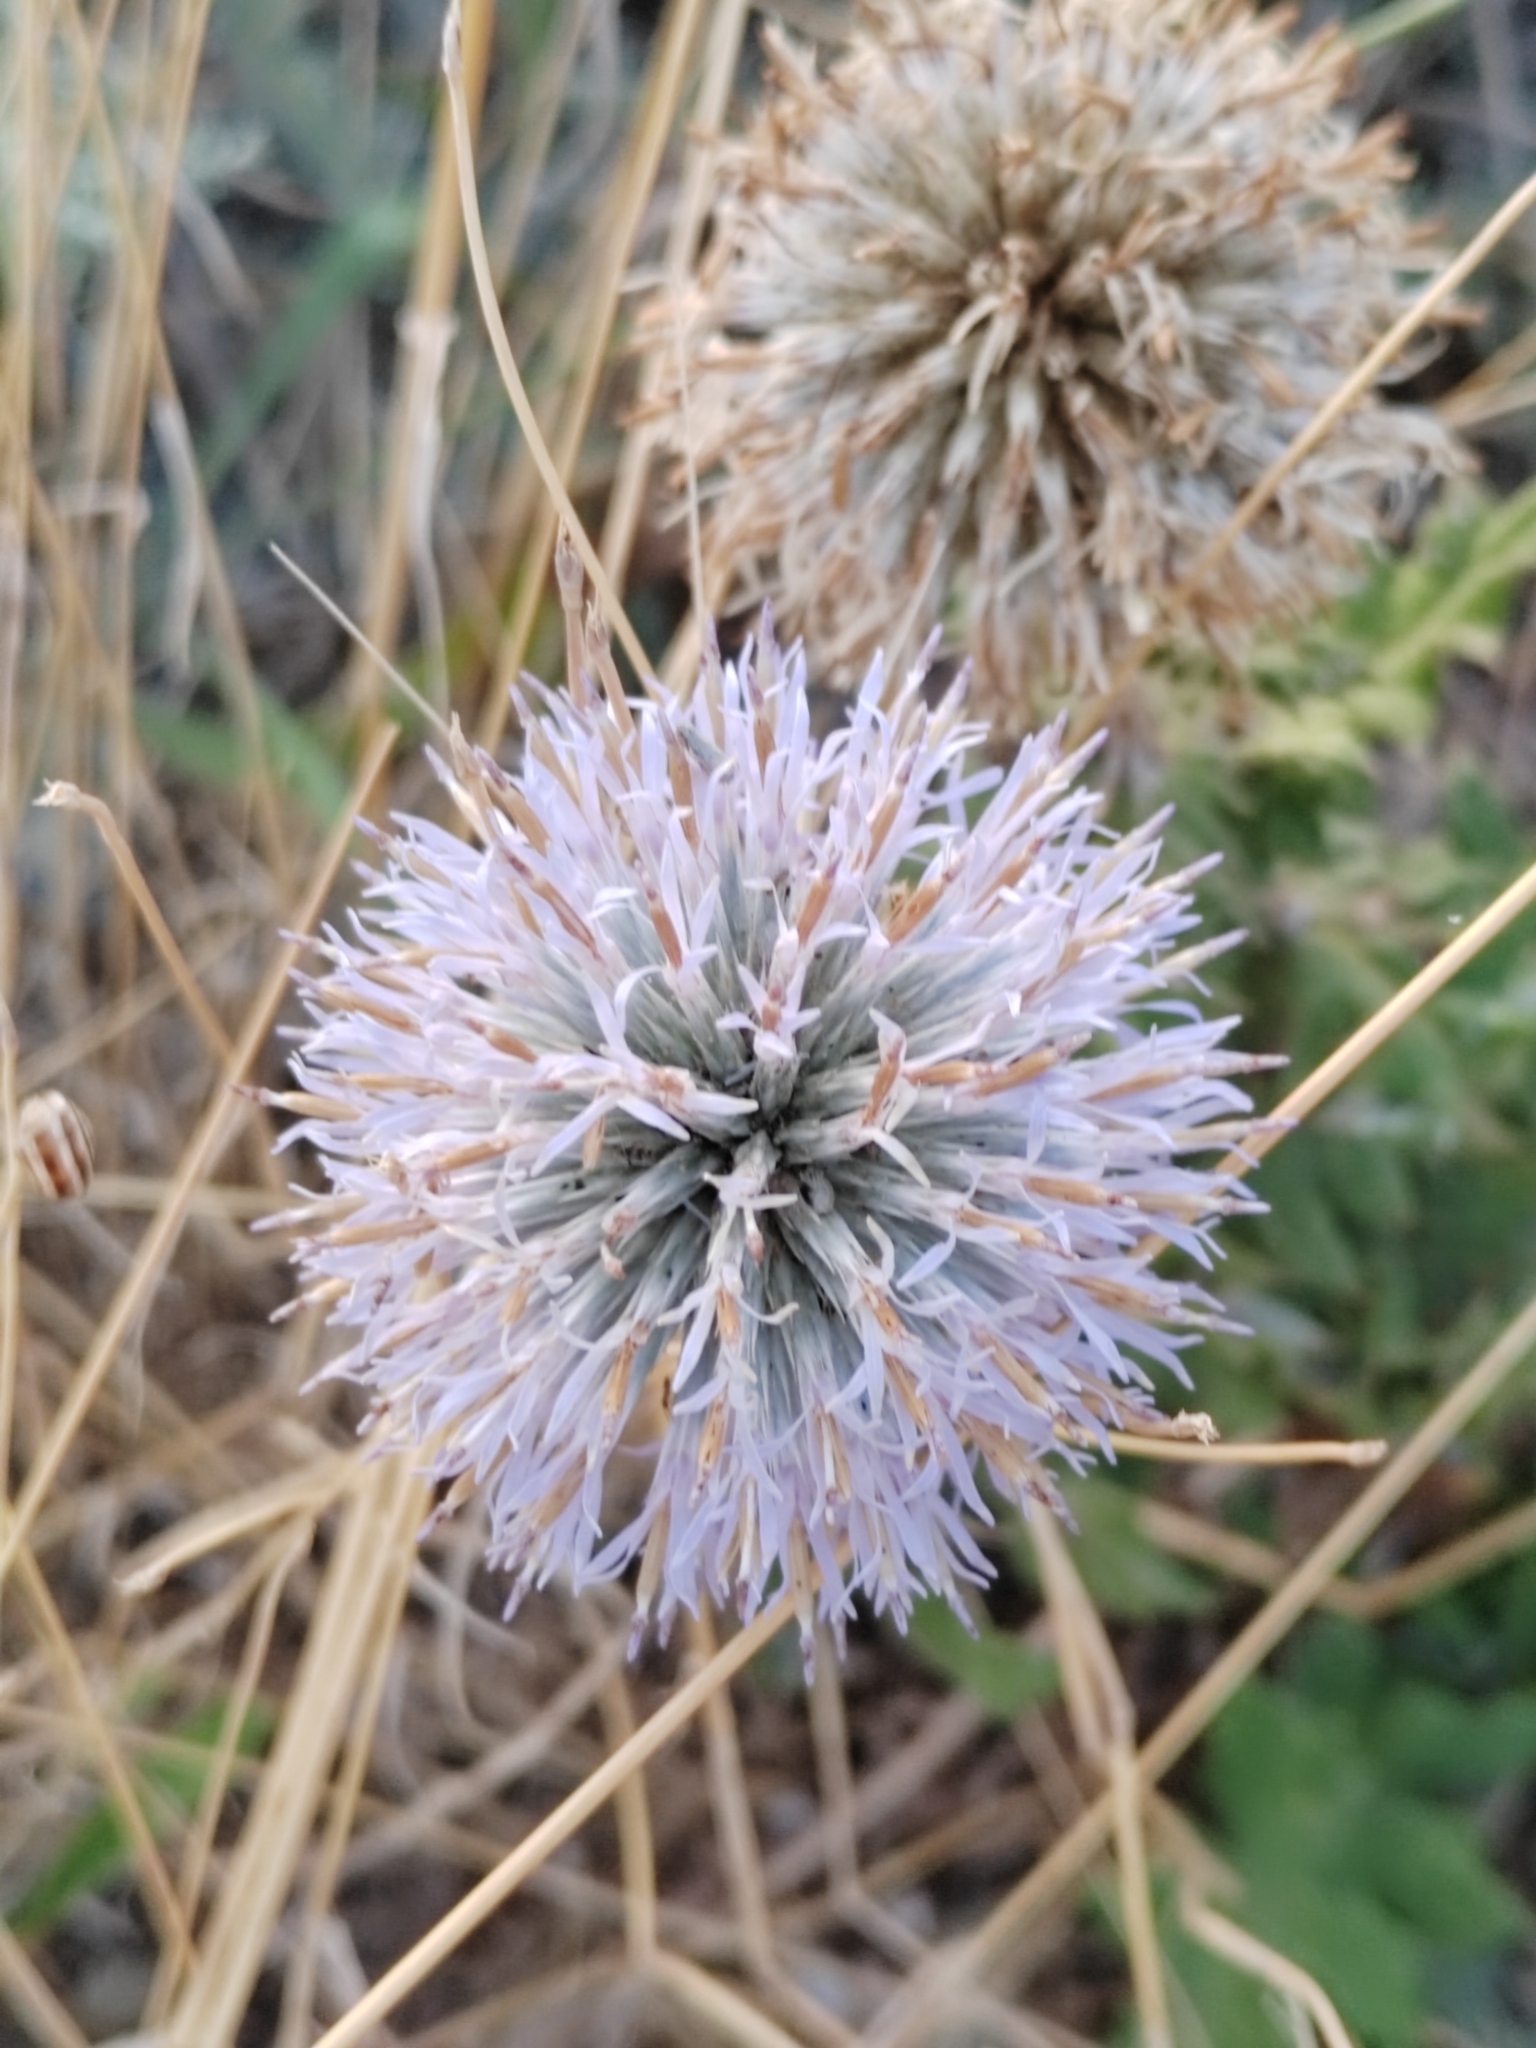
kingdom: Plantae
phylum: Tracheophyta
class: Magnoliopsida
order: Asterales
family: Asteraceae
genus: Echinops
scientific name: Echinops sphaerocephalus
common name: Glandular globe-thistle
